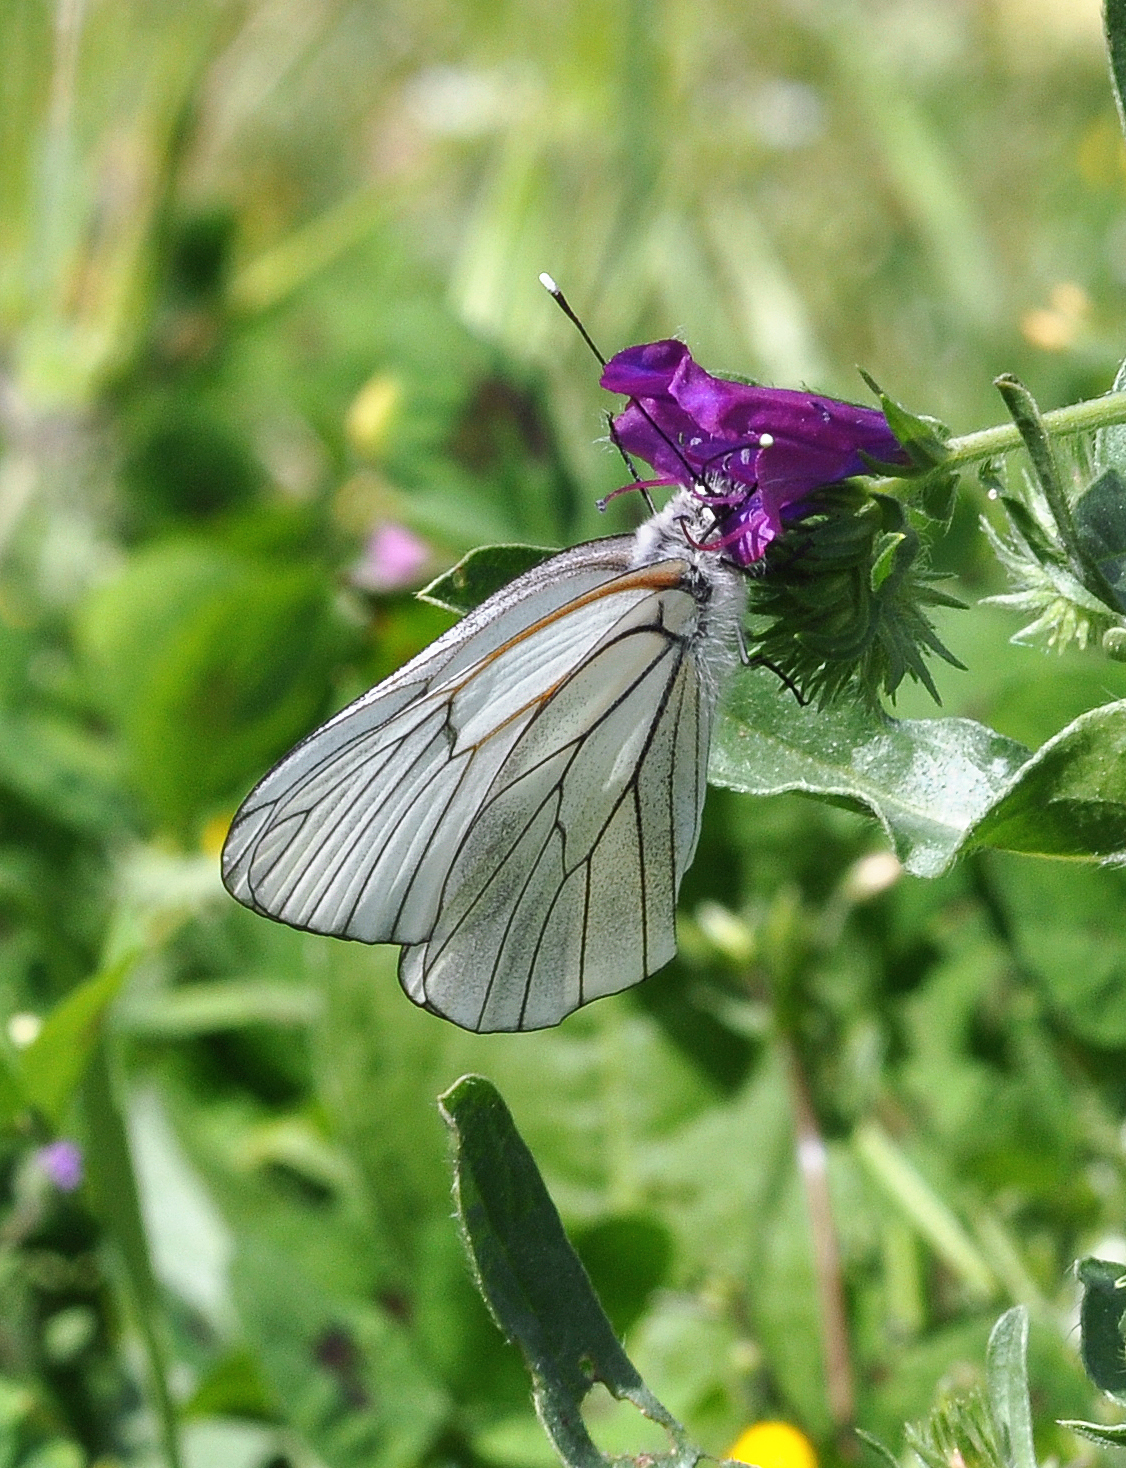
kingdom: Animalia
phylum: Arthropoda
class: Insecta
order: Lepidoptera
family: Pieridae
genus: Aporia
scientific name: Aporia crataegi
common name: Black-veined white
